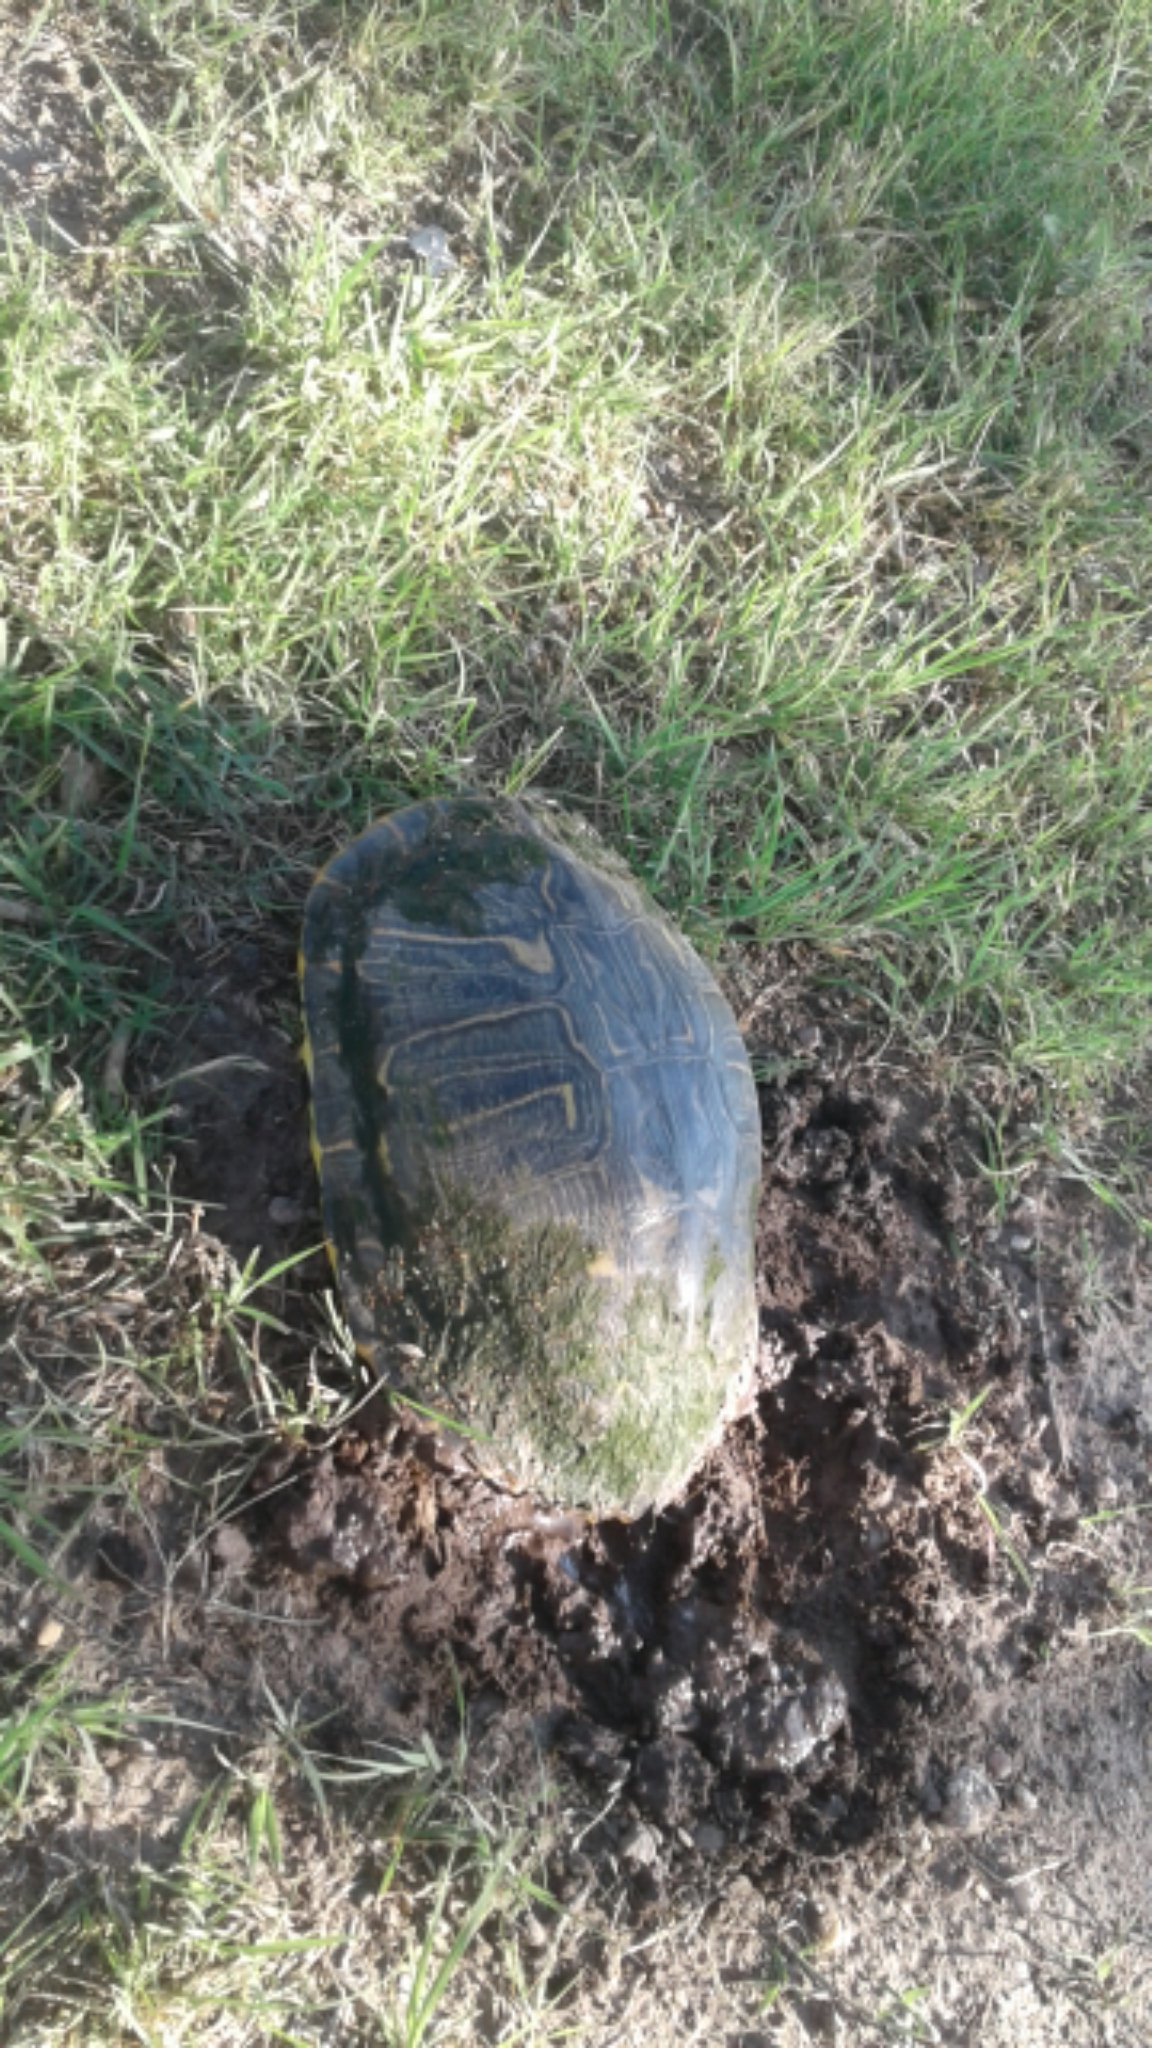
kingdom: Animalia
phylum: Chordata
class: Testudines
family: Emydidae
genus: Trachemys
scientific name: Trachemys scripta
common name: Slider
